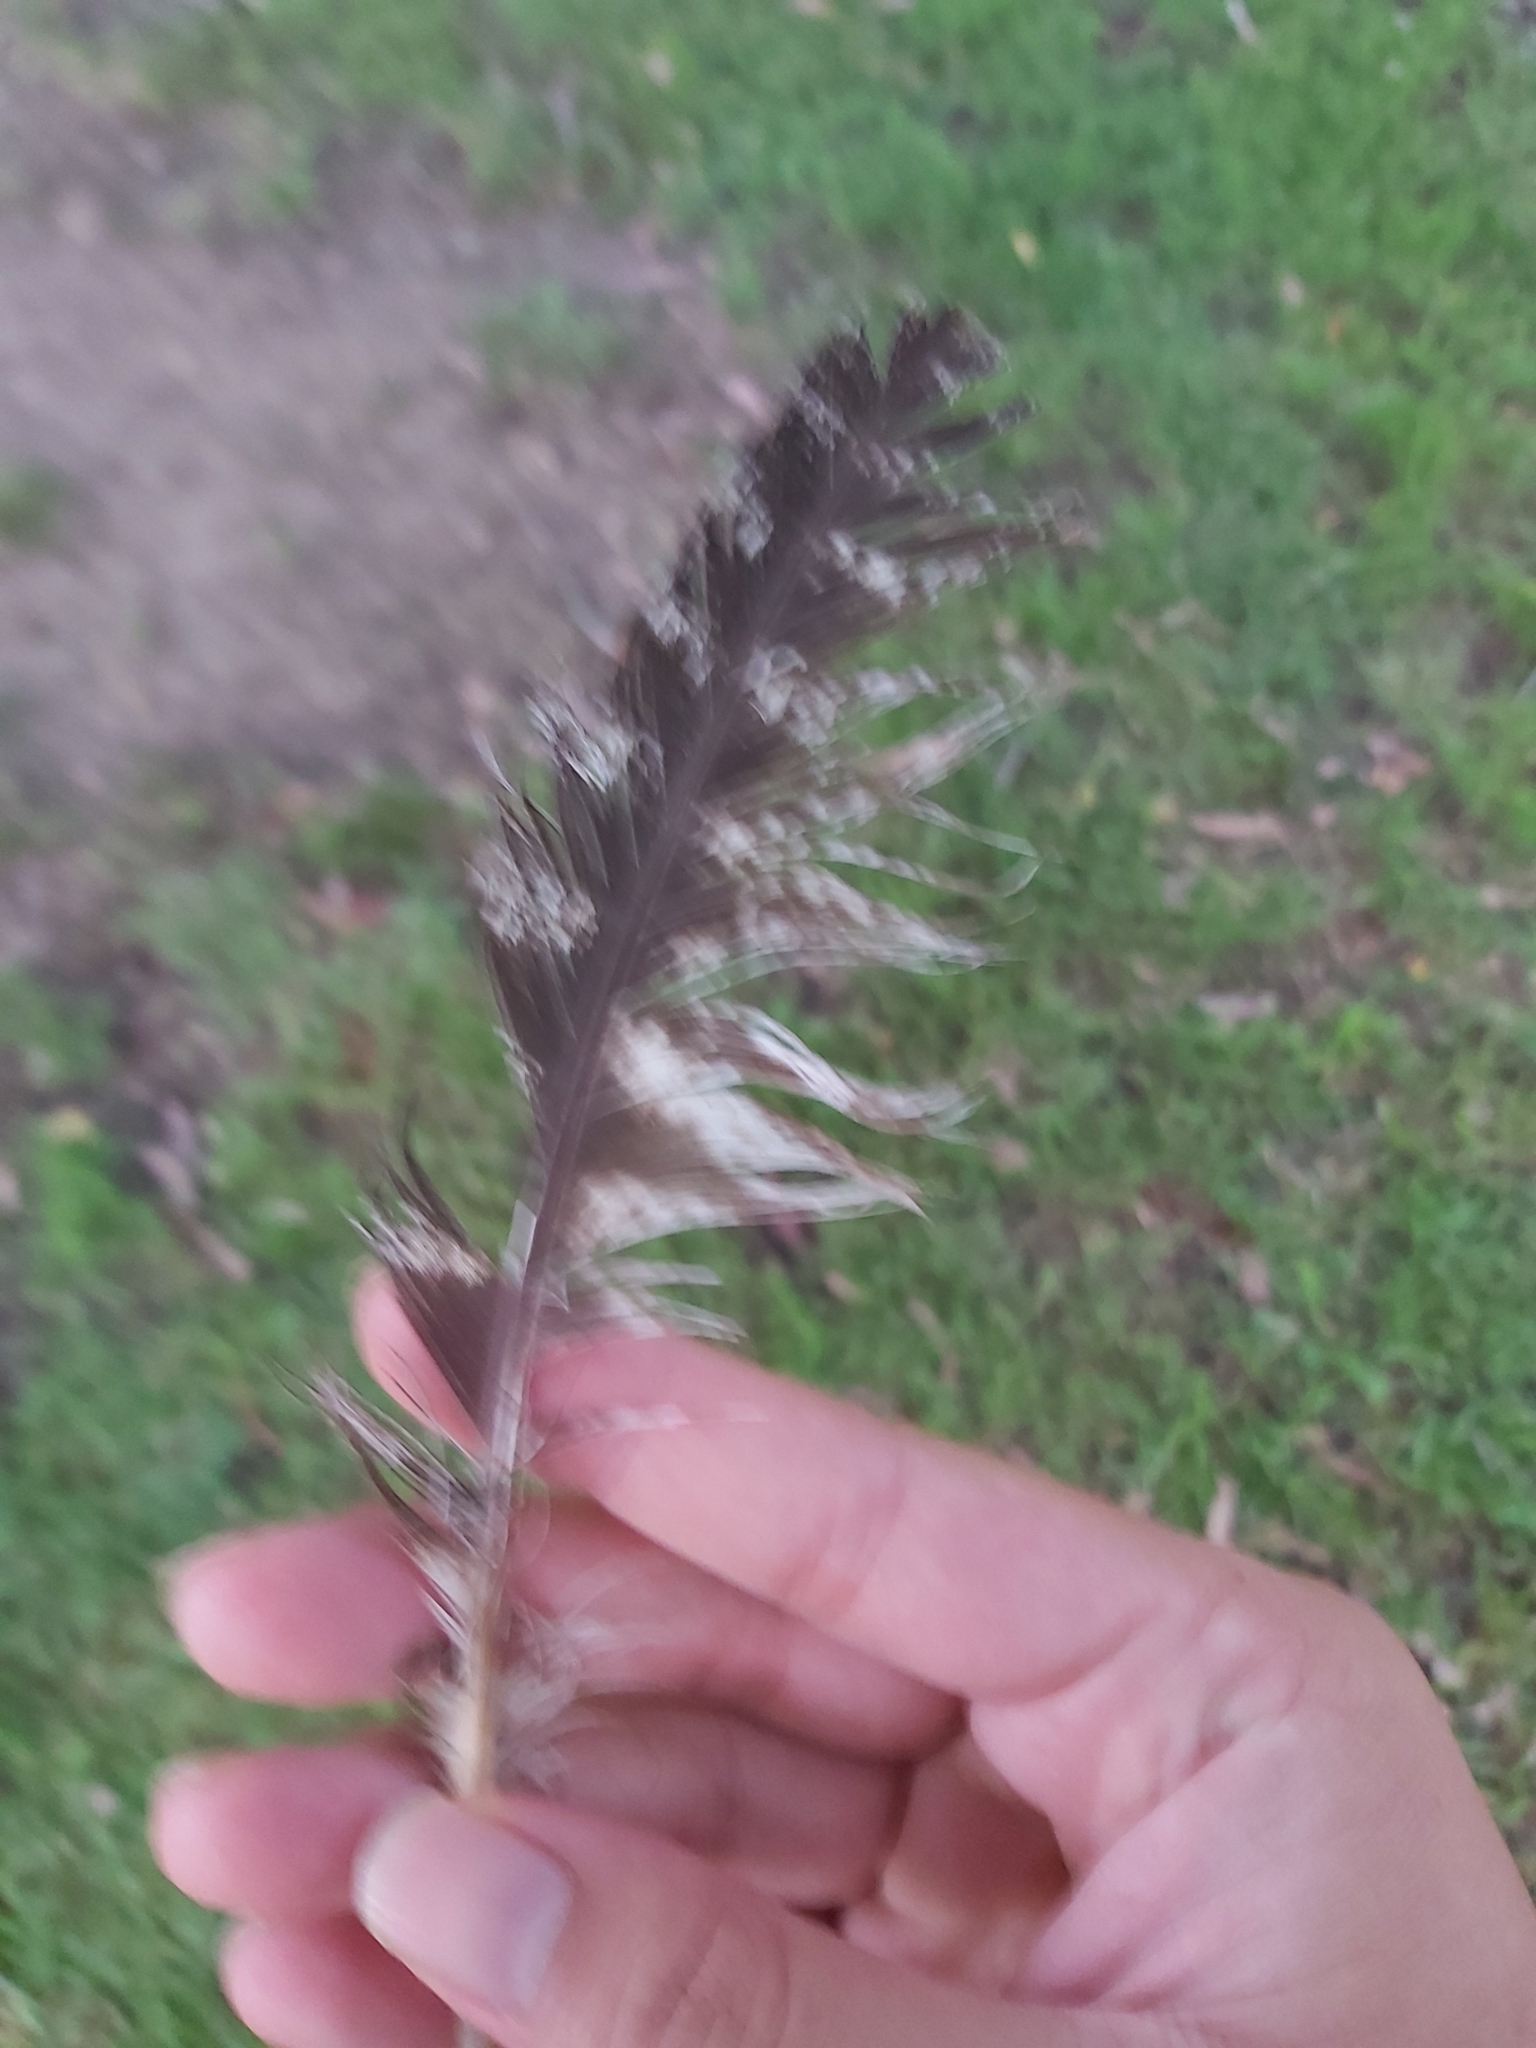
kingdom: Animalia
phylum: Chordata
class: Aves
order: Caprimulgiformes
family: Podargidae
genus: Podargus
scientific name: Podargus strigoides
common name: Tawny frogmouth
